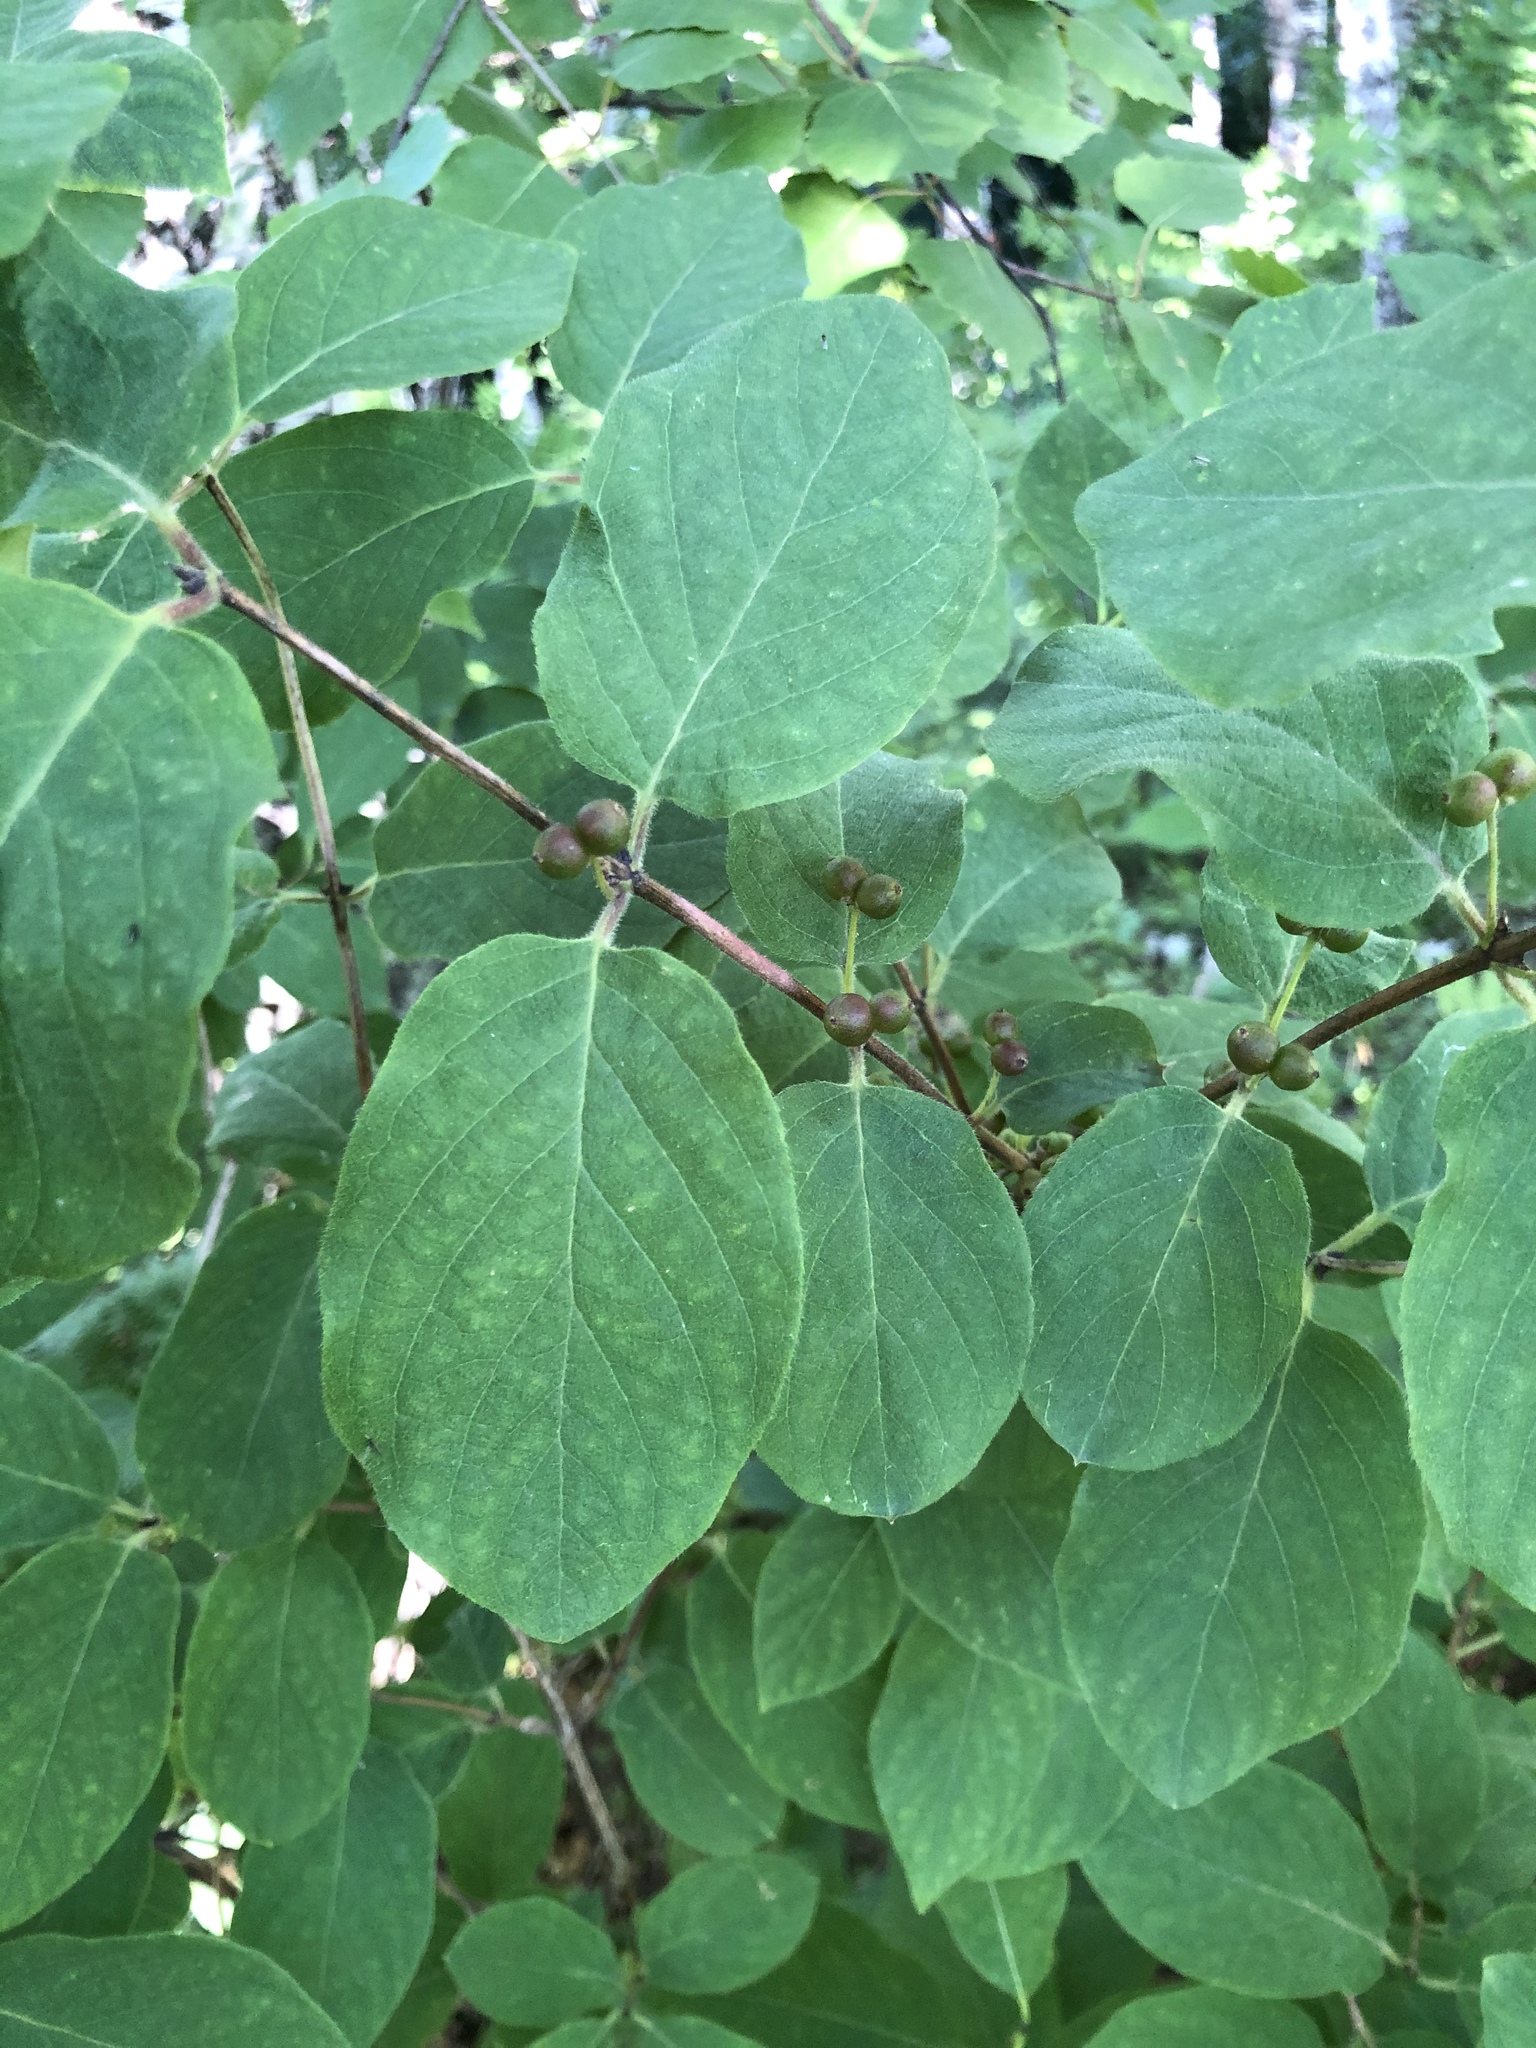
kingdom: Plantae
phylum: Tracheophyta
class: Magnoliopsida
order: Dipsacales
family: Caprifoliaceae
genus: Lonicera
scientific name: Lonicera xylosteum
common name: Fly honeysuckle
